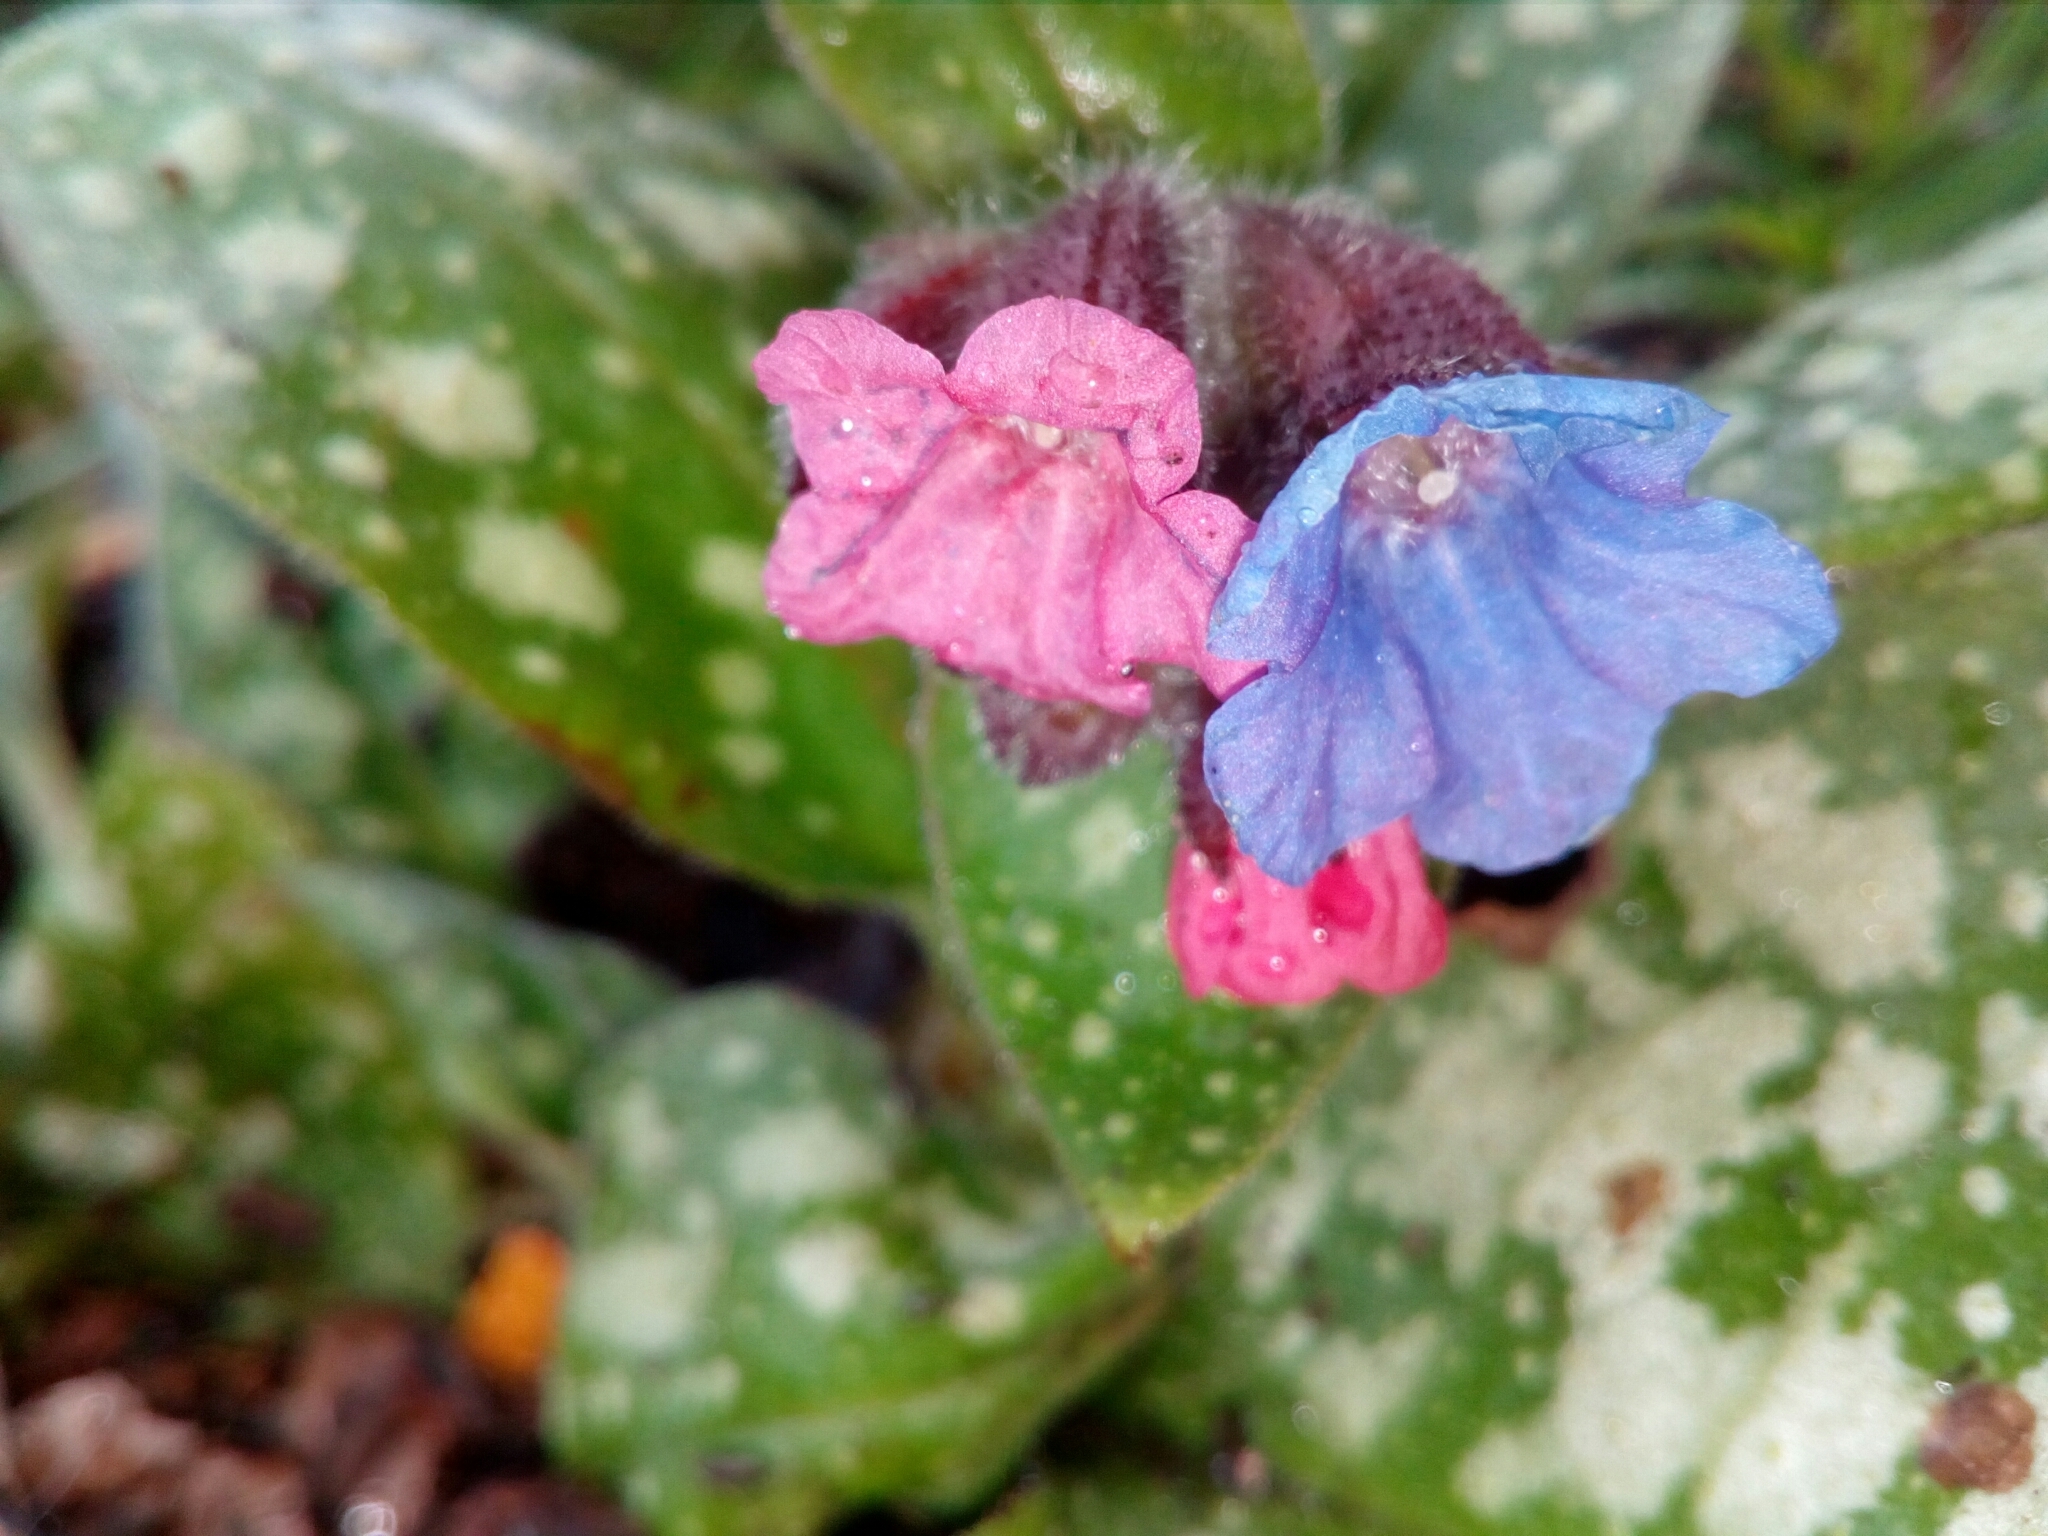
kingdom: Plantae
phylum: Tracheophyta
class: Magnoliopsida
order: Boraginales
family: Boraginaceae
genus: Pulmonaria
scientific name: Pulmonaria officinalis
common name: Lungwort
